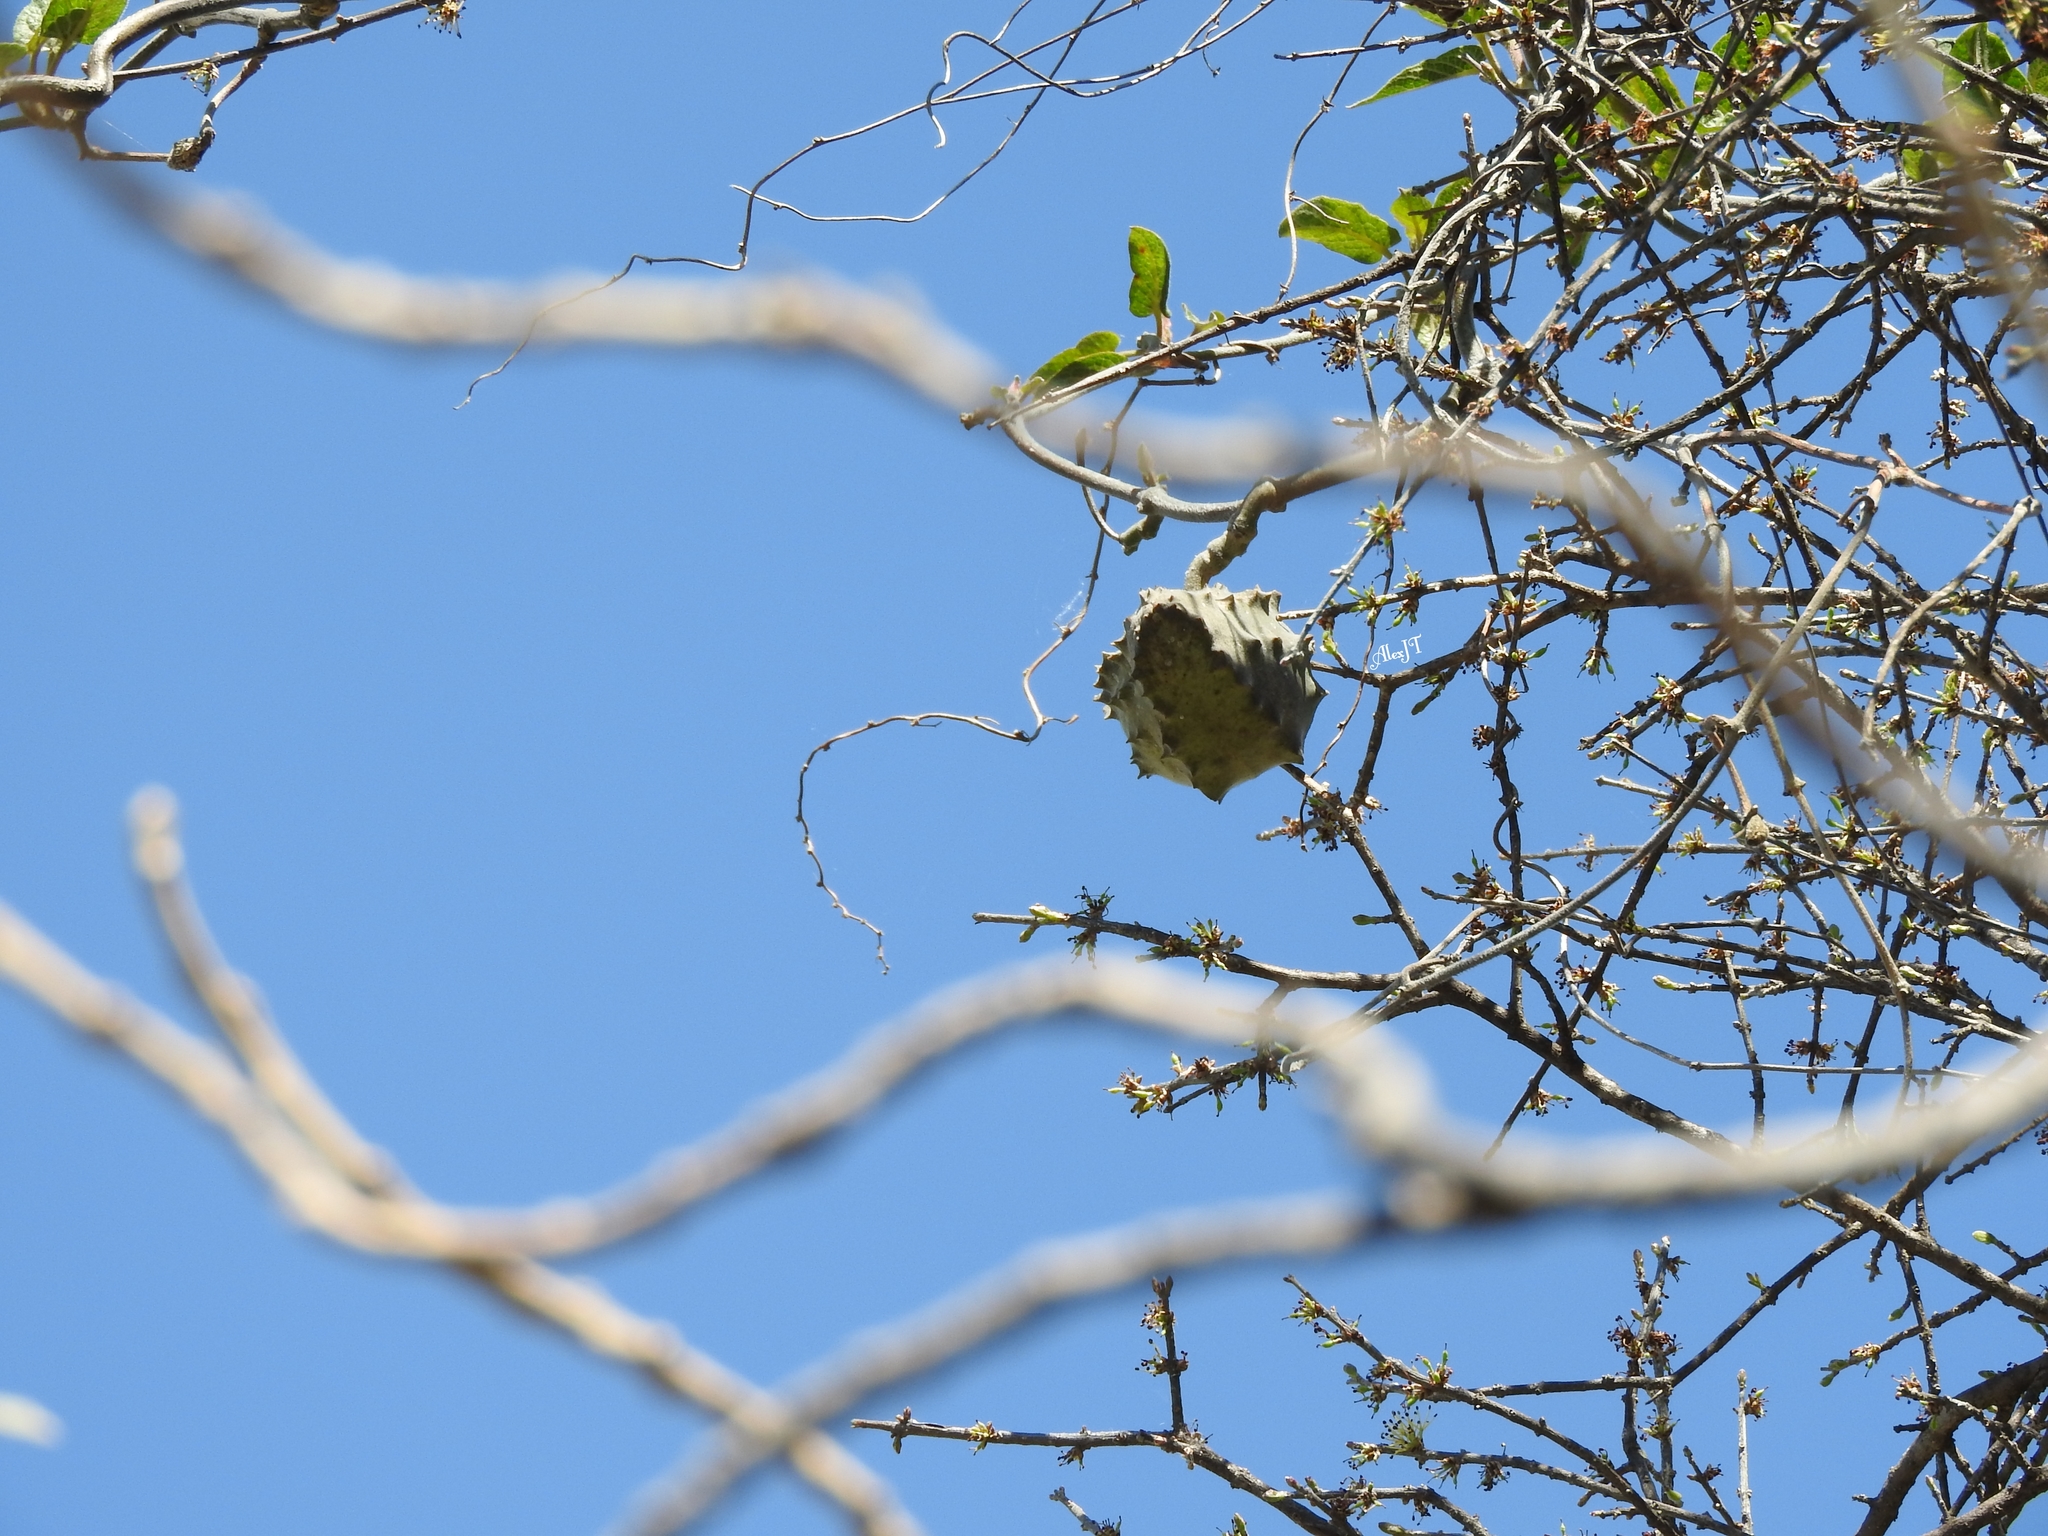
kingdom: Plantae
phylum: Tracheophyta
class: Magnoliopsida
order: Gentianales
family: Apocynaceae
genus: Gonolobus
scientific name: Gonolobus grandiflorus
